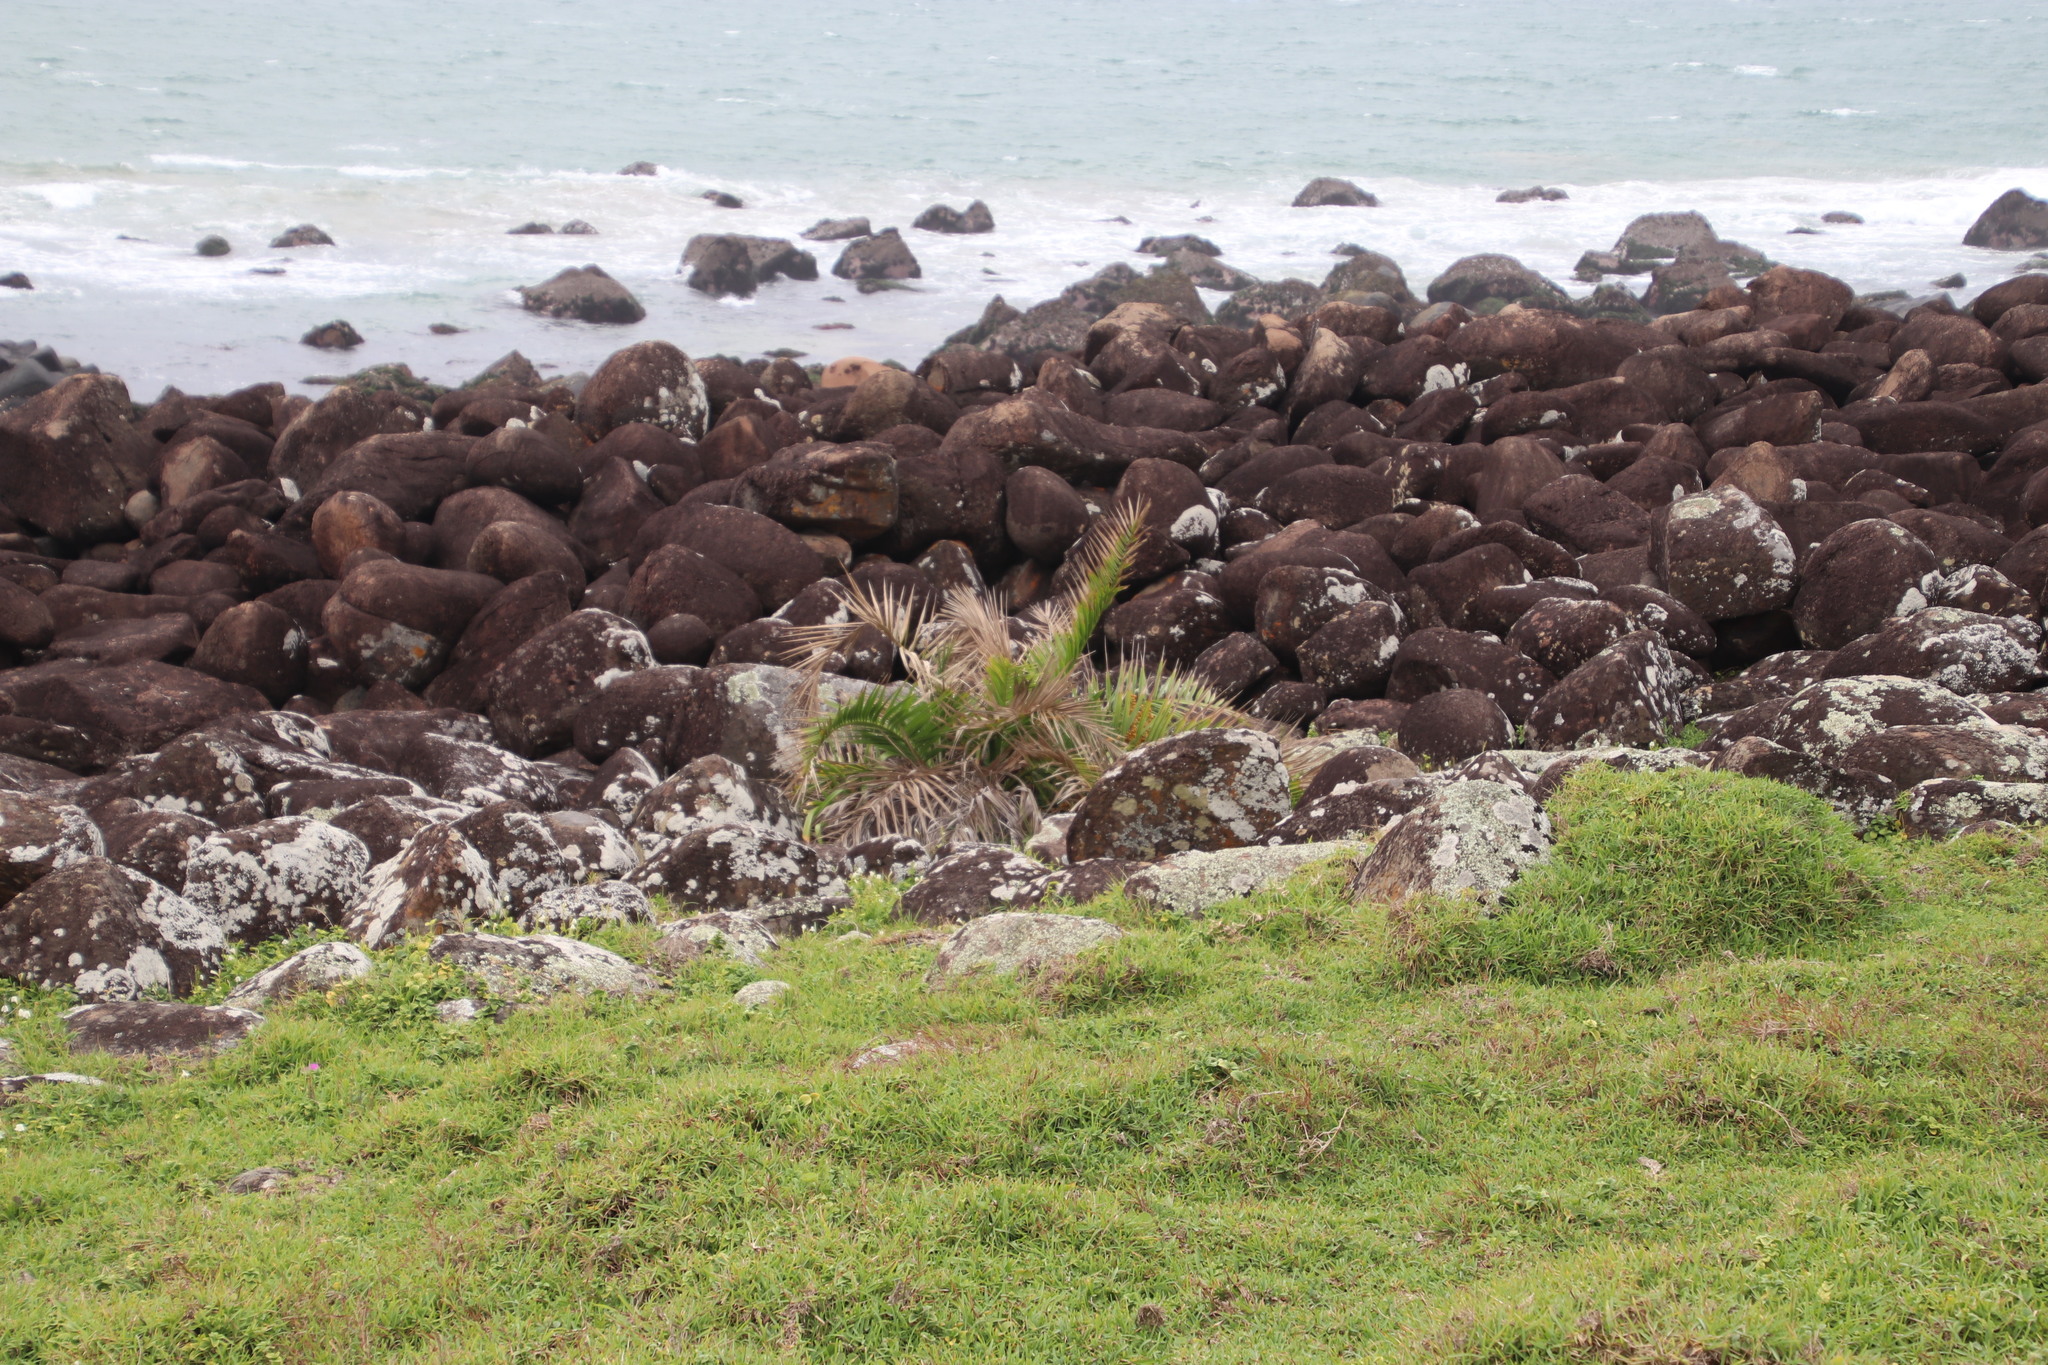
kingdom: Plantae
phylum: Tracheophyta
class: Liliopsida
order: Arecales
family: Arecaceae
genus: Phoenix
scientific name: Phoenix reclinata
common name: Senegal date palm
